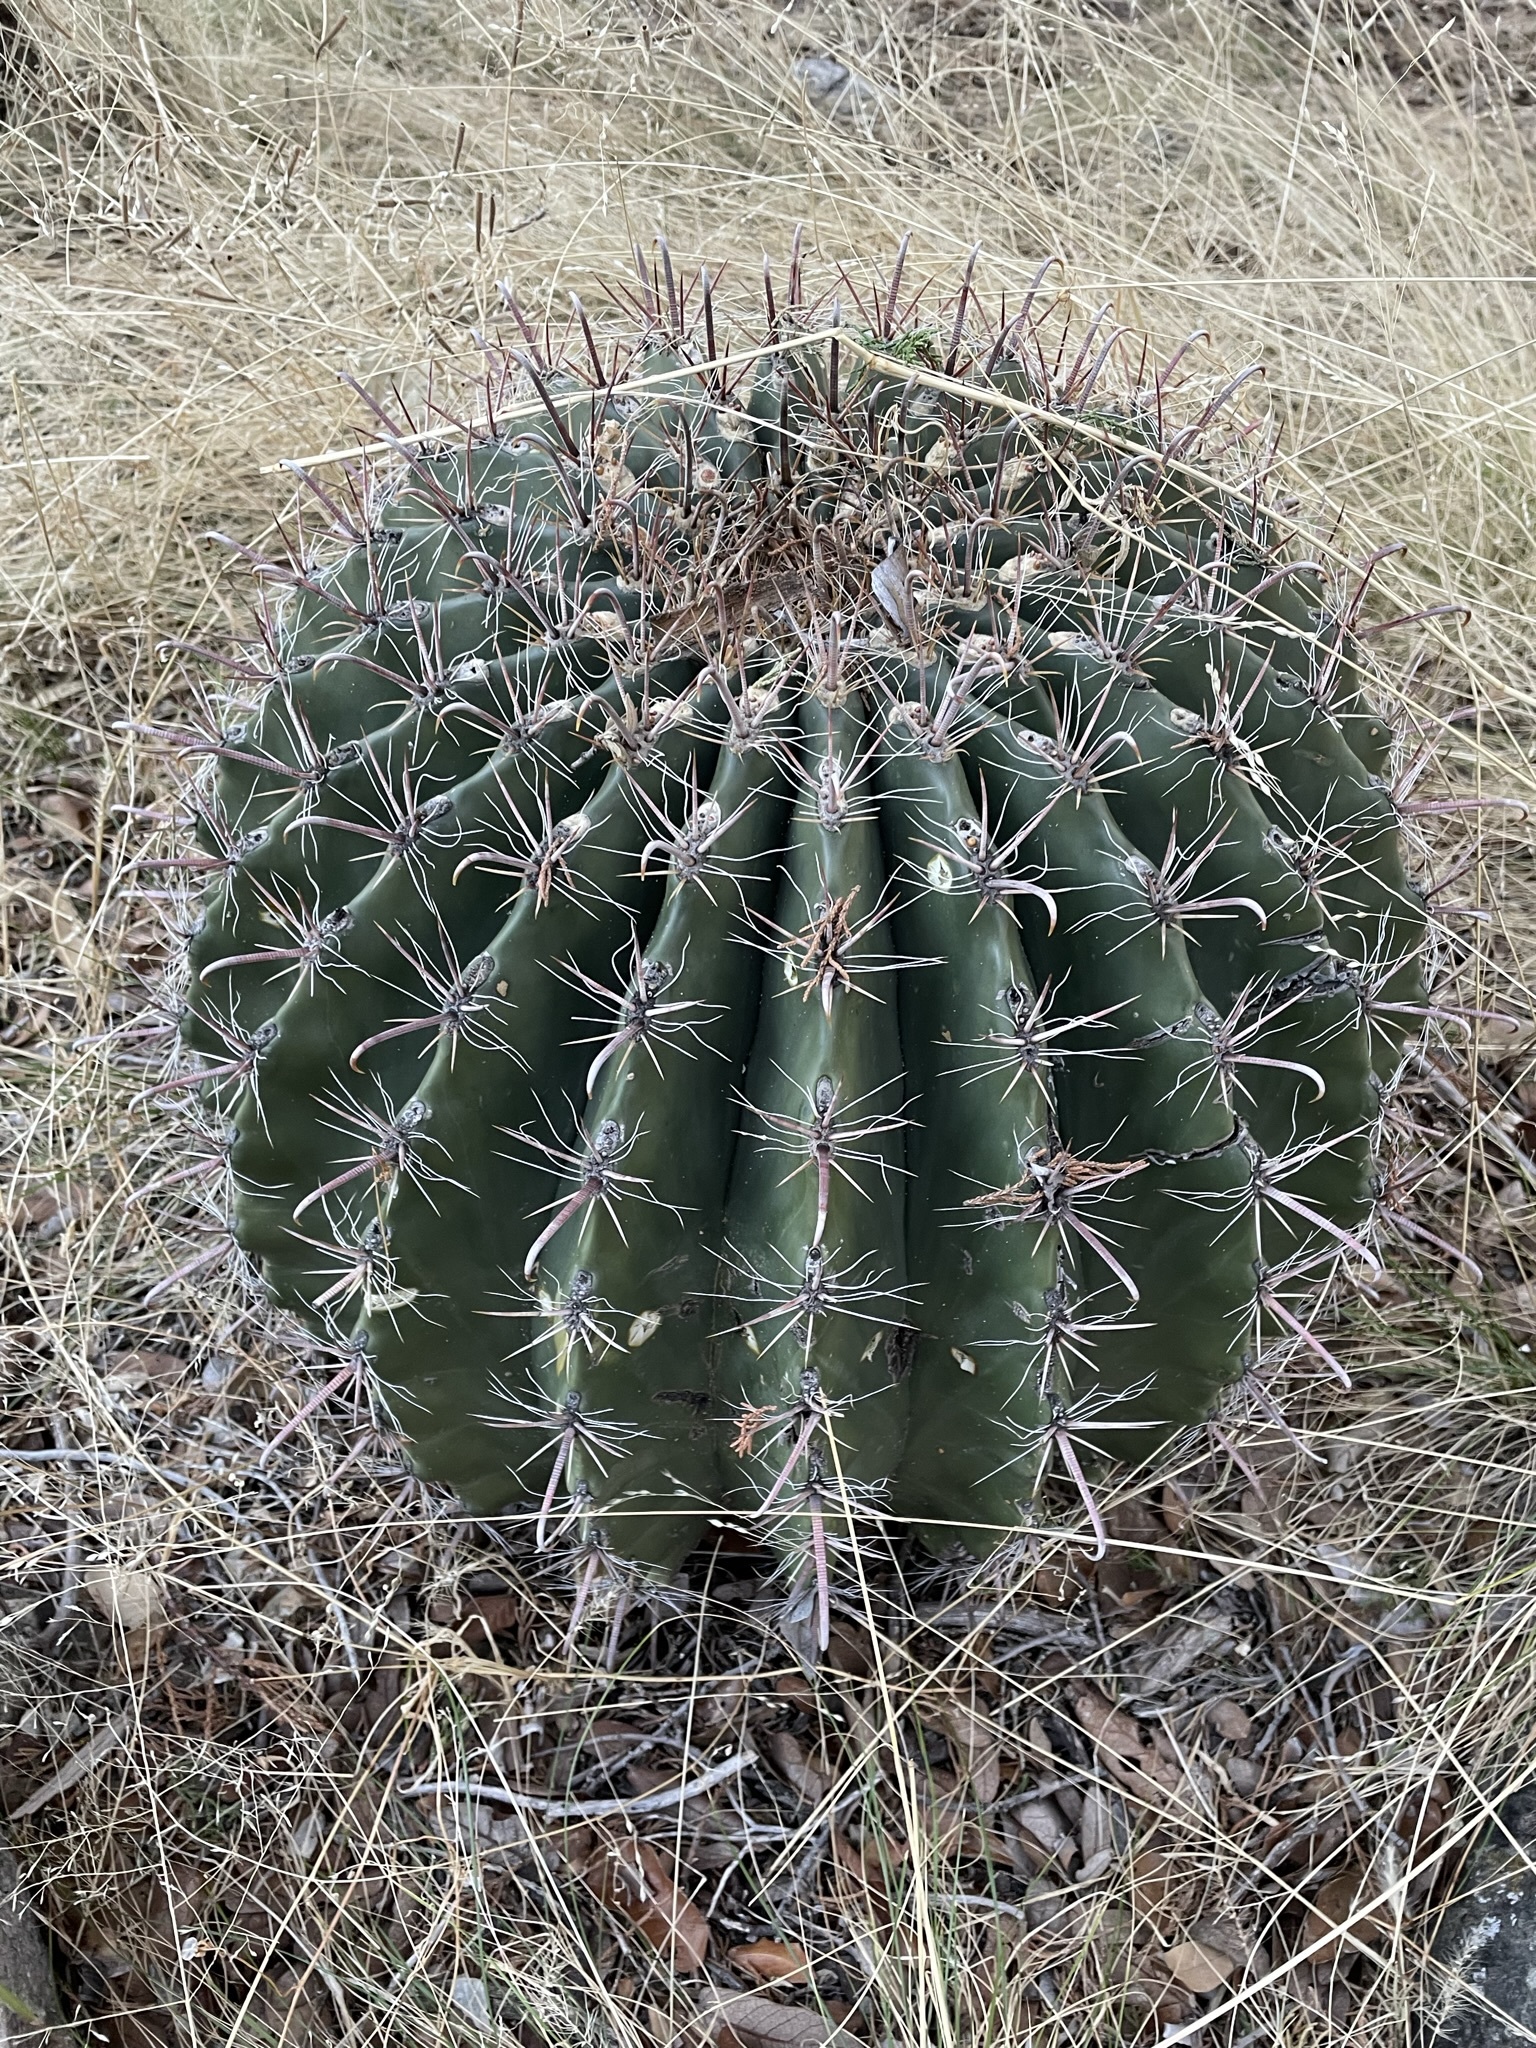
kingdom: Plantae
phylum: Tracheophyta
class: Magnoliopsida
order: Caryophyllales
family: Cactaceae
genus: Ferocactus
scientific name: Ferocactus wislizeni
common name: Candy barrel cactus
